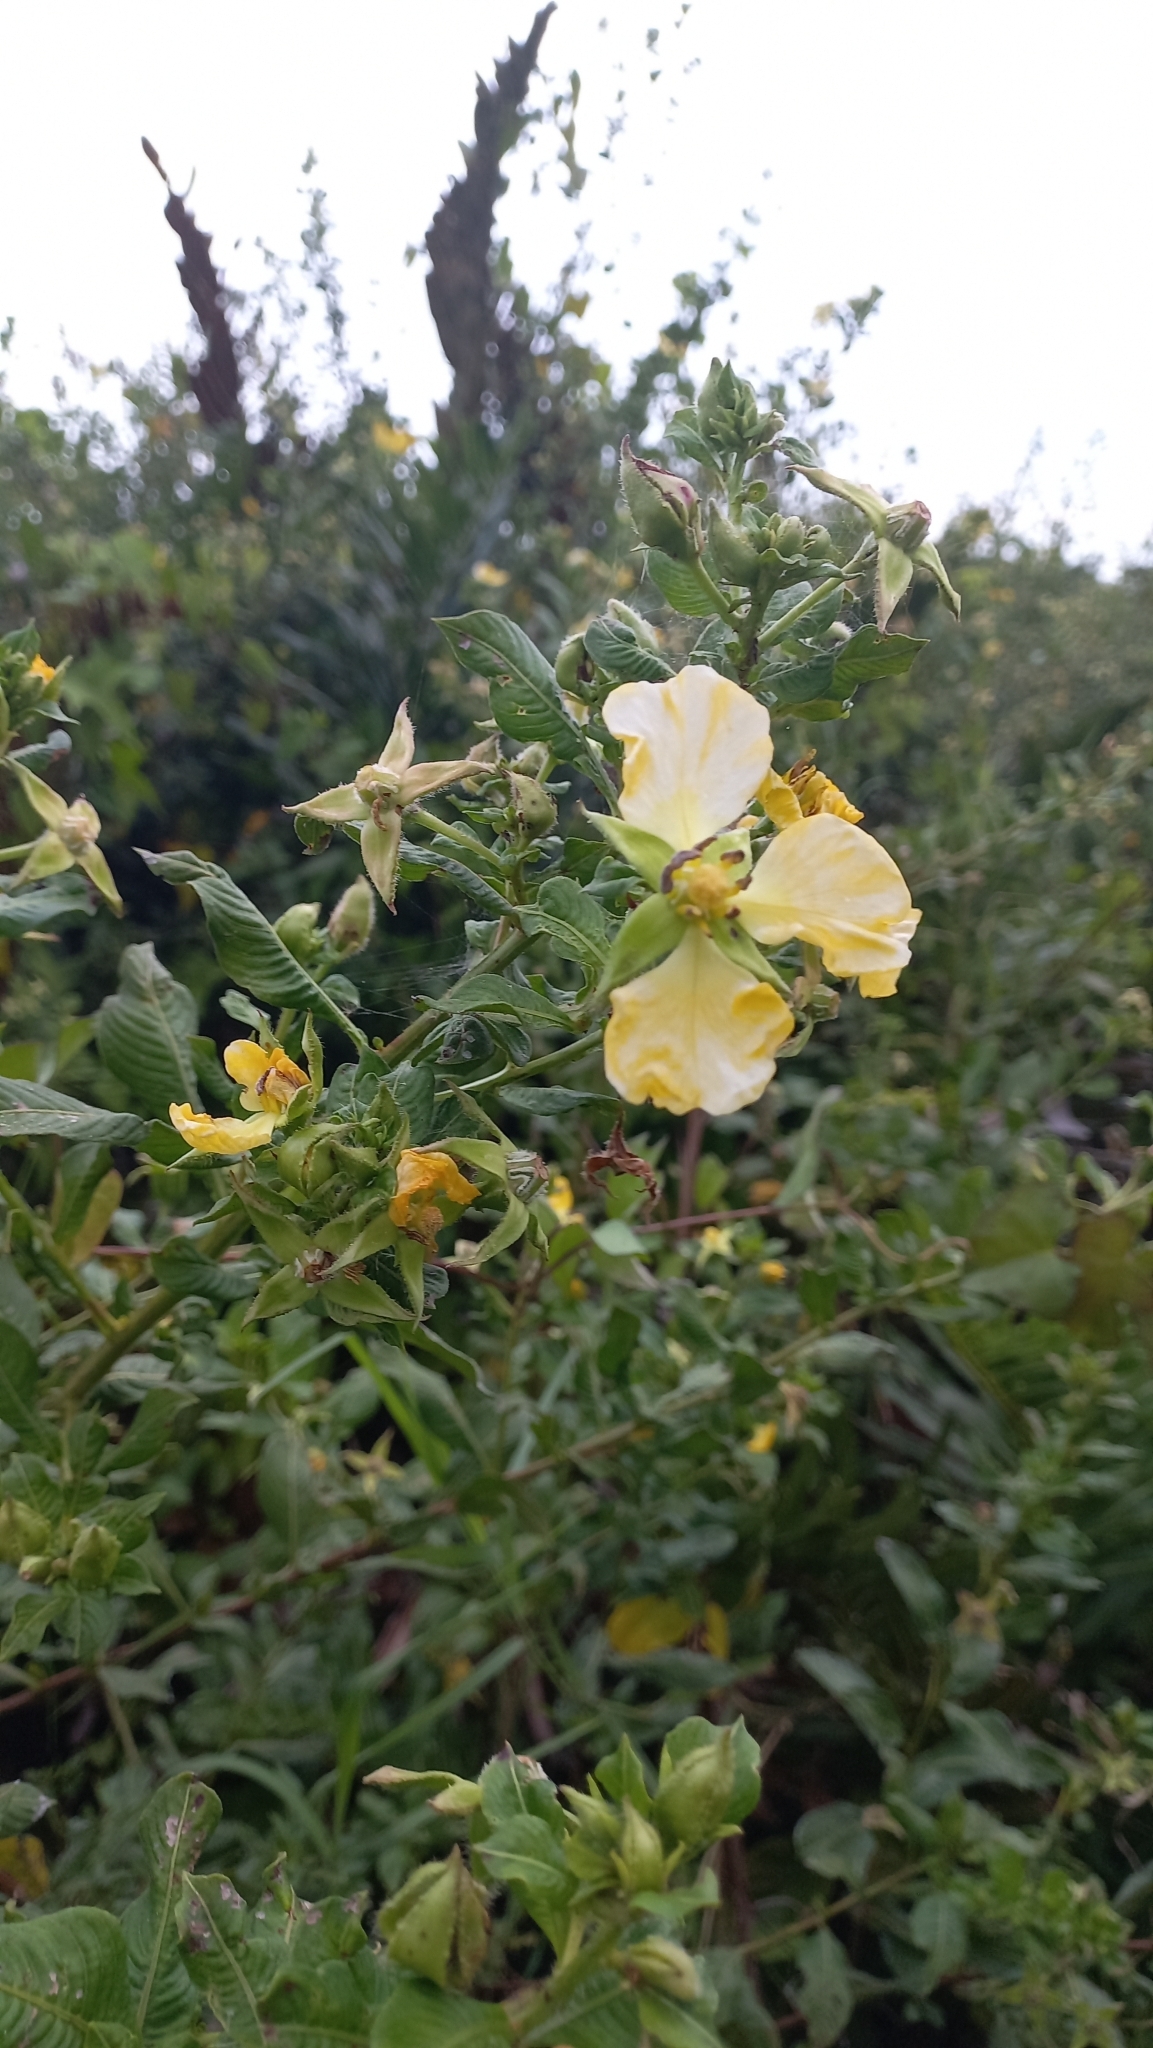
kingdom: Plantae
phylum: Tracheophyta
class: Magnoliopsida
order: Myrtales
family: Onagraceae
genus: Ludwigia
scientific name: Ludwigia multinervia
